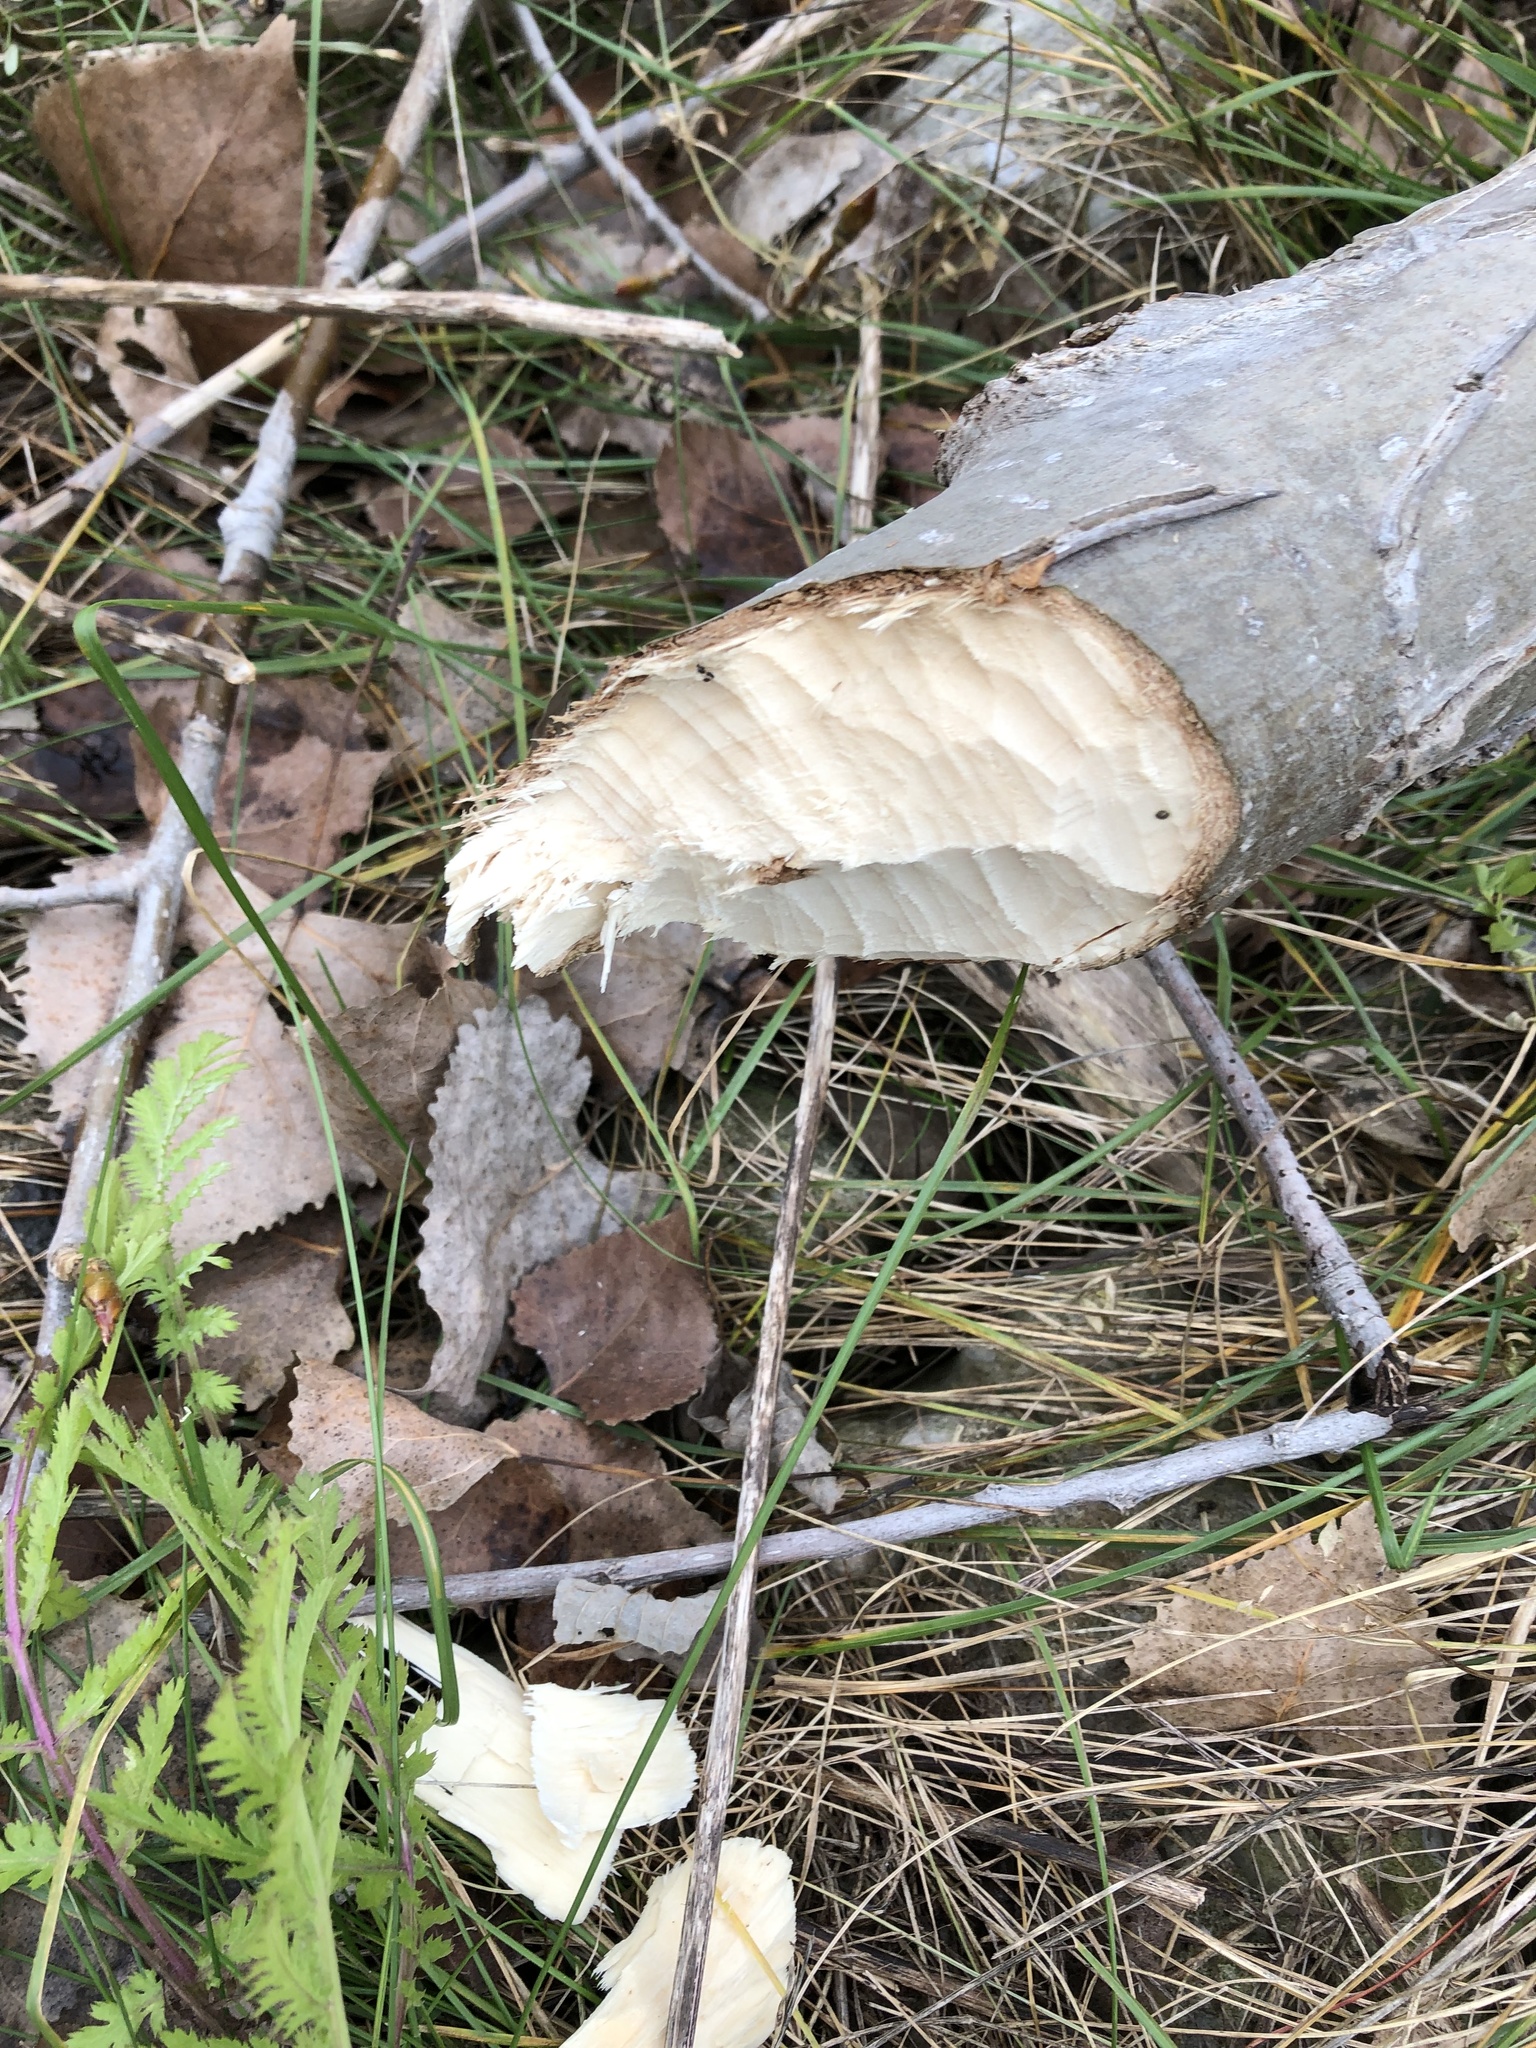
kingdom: Animalia
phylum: Chordata
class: Mammalia
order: Rodentia
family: Castoridae
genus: Castor
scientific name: Castor canadensis
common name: American beaver
